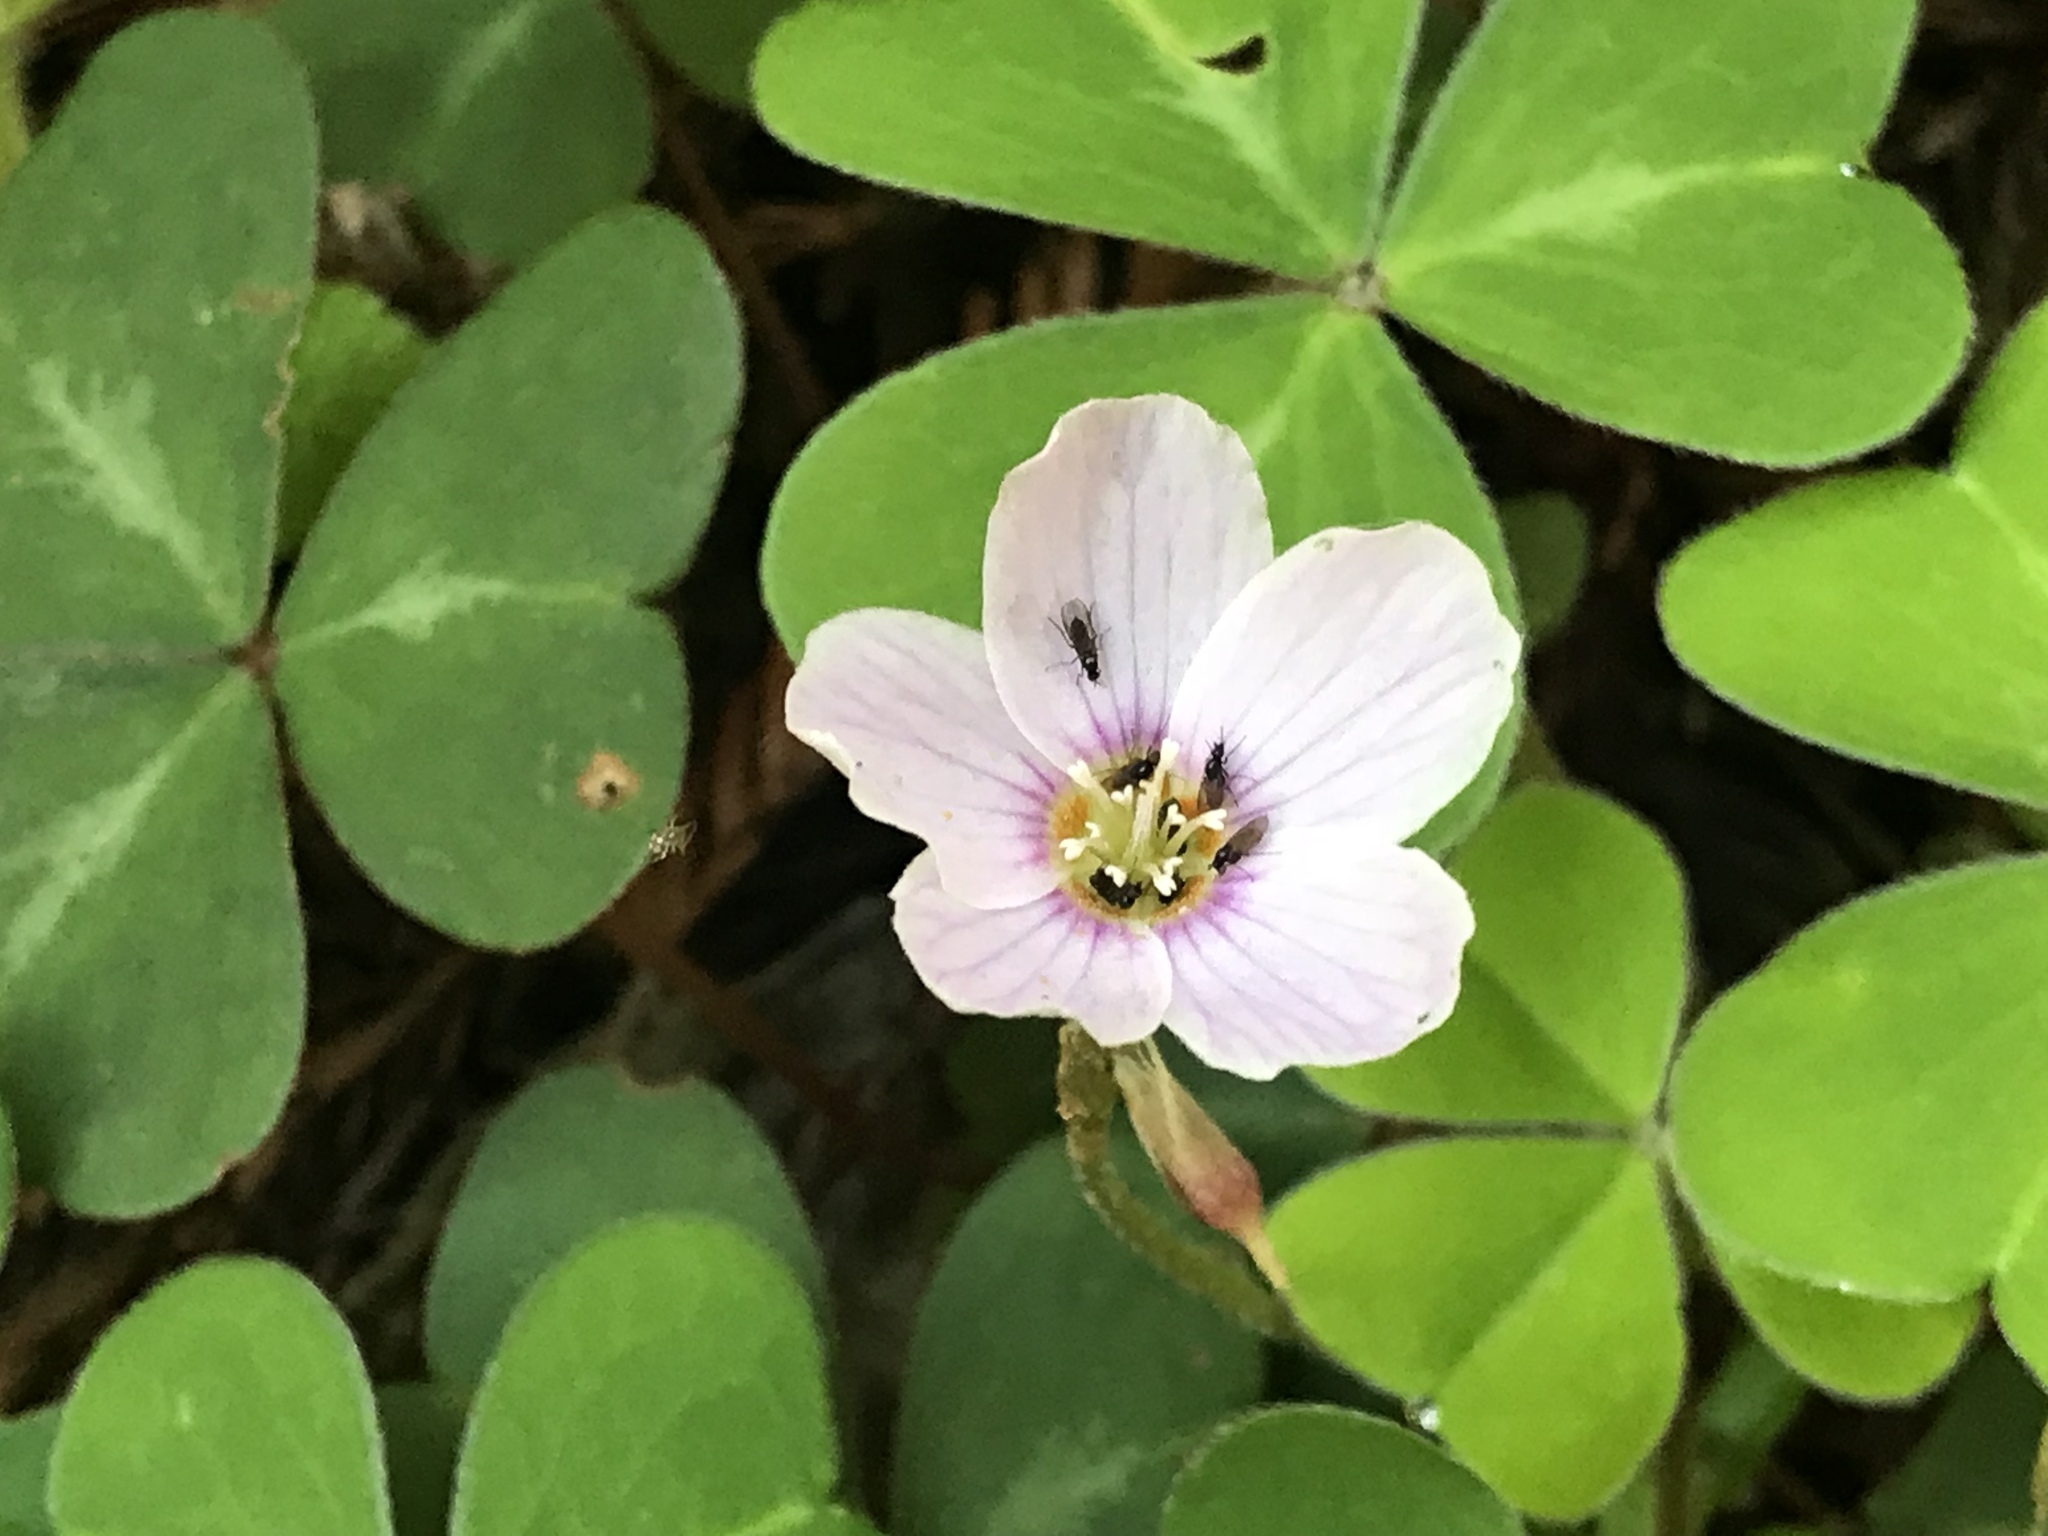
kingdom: Plantae
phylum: Tracheophyta
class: Magnoliopsida
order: Oxalidales
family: Oxalidaceae
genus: Oxalis
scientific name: Oxalis oregana
